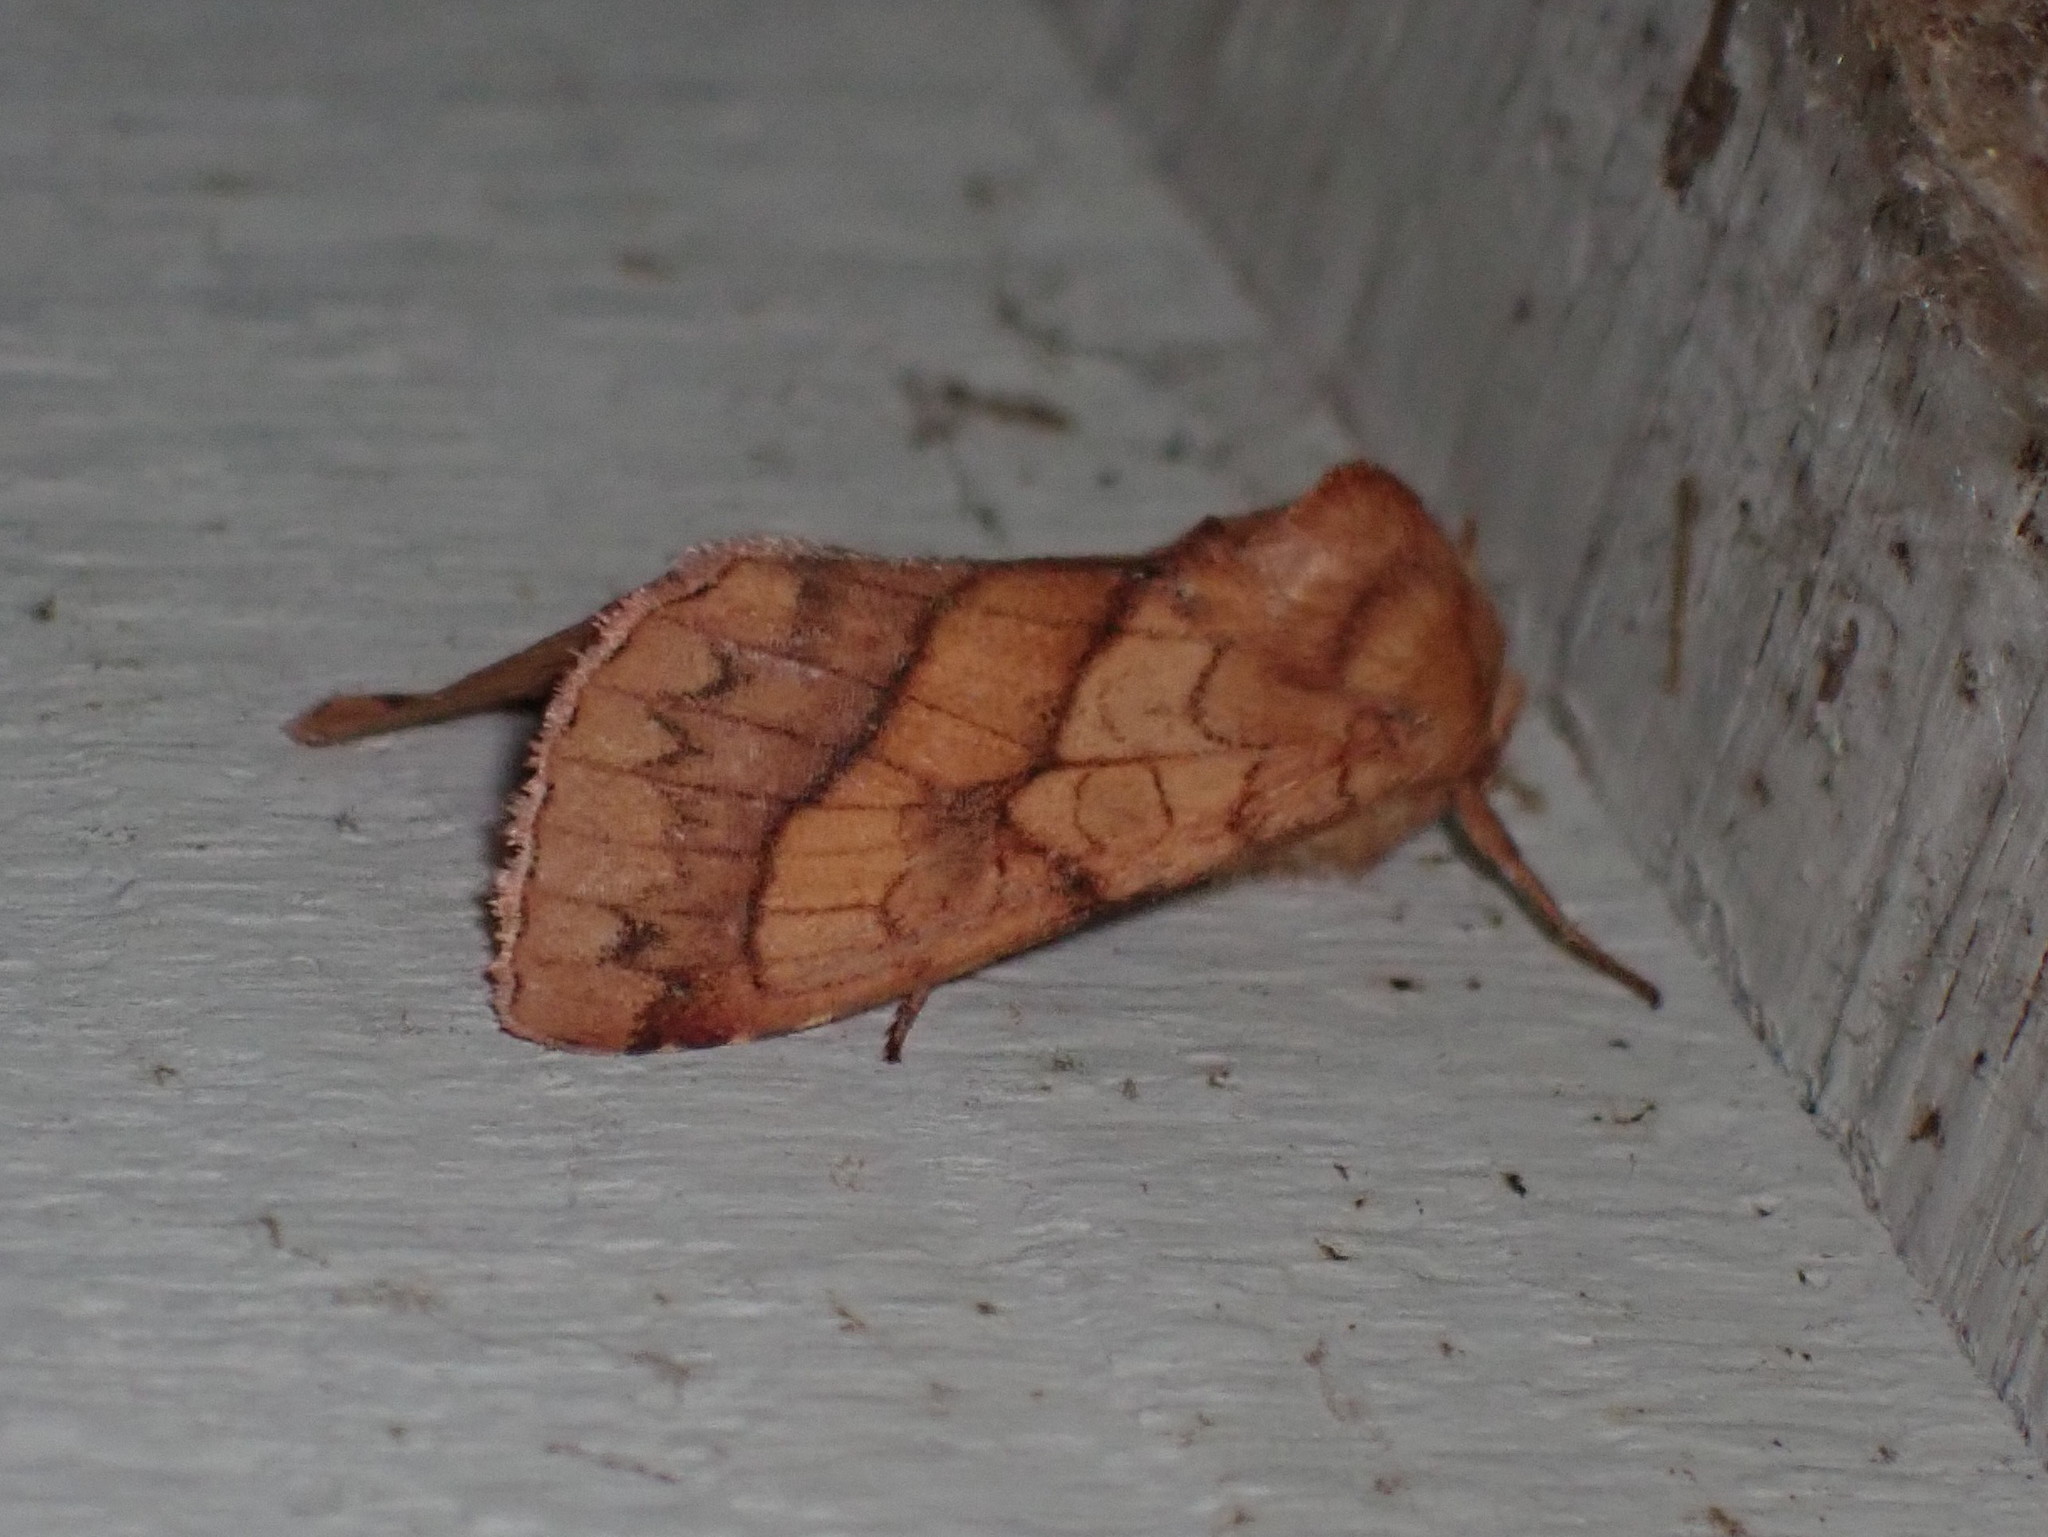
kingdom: Animalia
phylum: Arthropoda
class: Insecta
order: Lepidoptera
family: Noctuidae
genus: Pyrrhia
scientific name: Pyrrhia exprimens
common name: Purple-lined sallow
